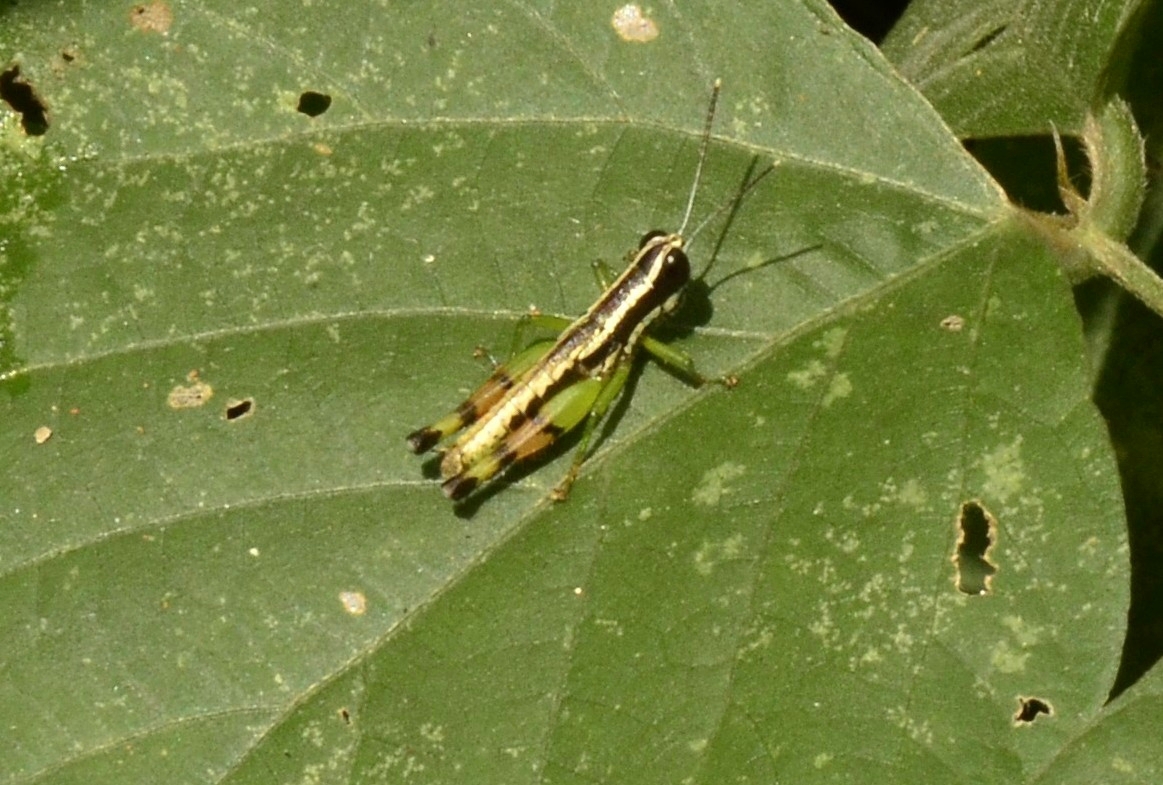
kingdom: Animalia
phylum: Arthropoda
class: Insecta
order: Orthoptera
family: Acrididae
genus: Chitaura
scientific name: Chitaura indica
